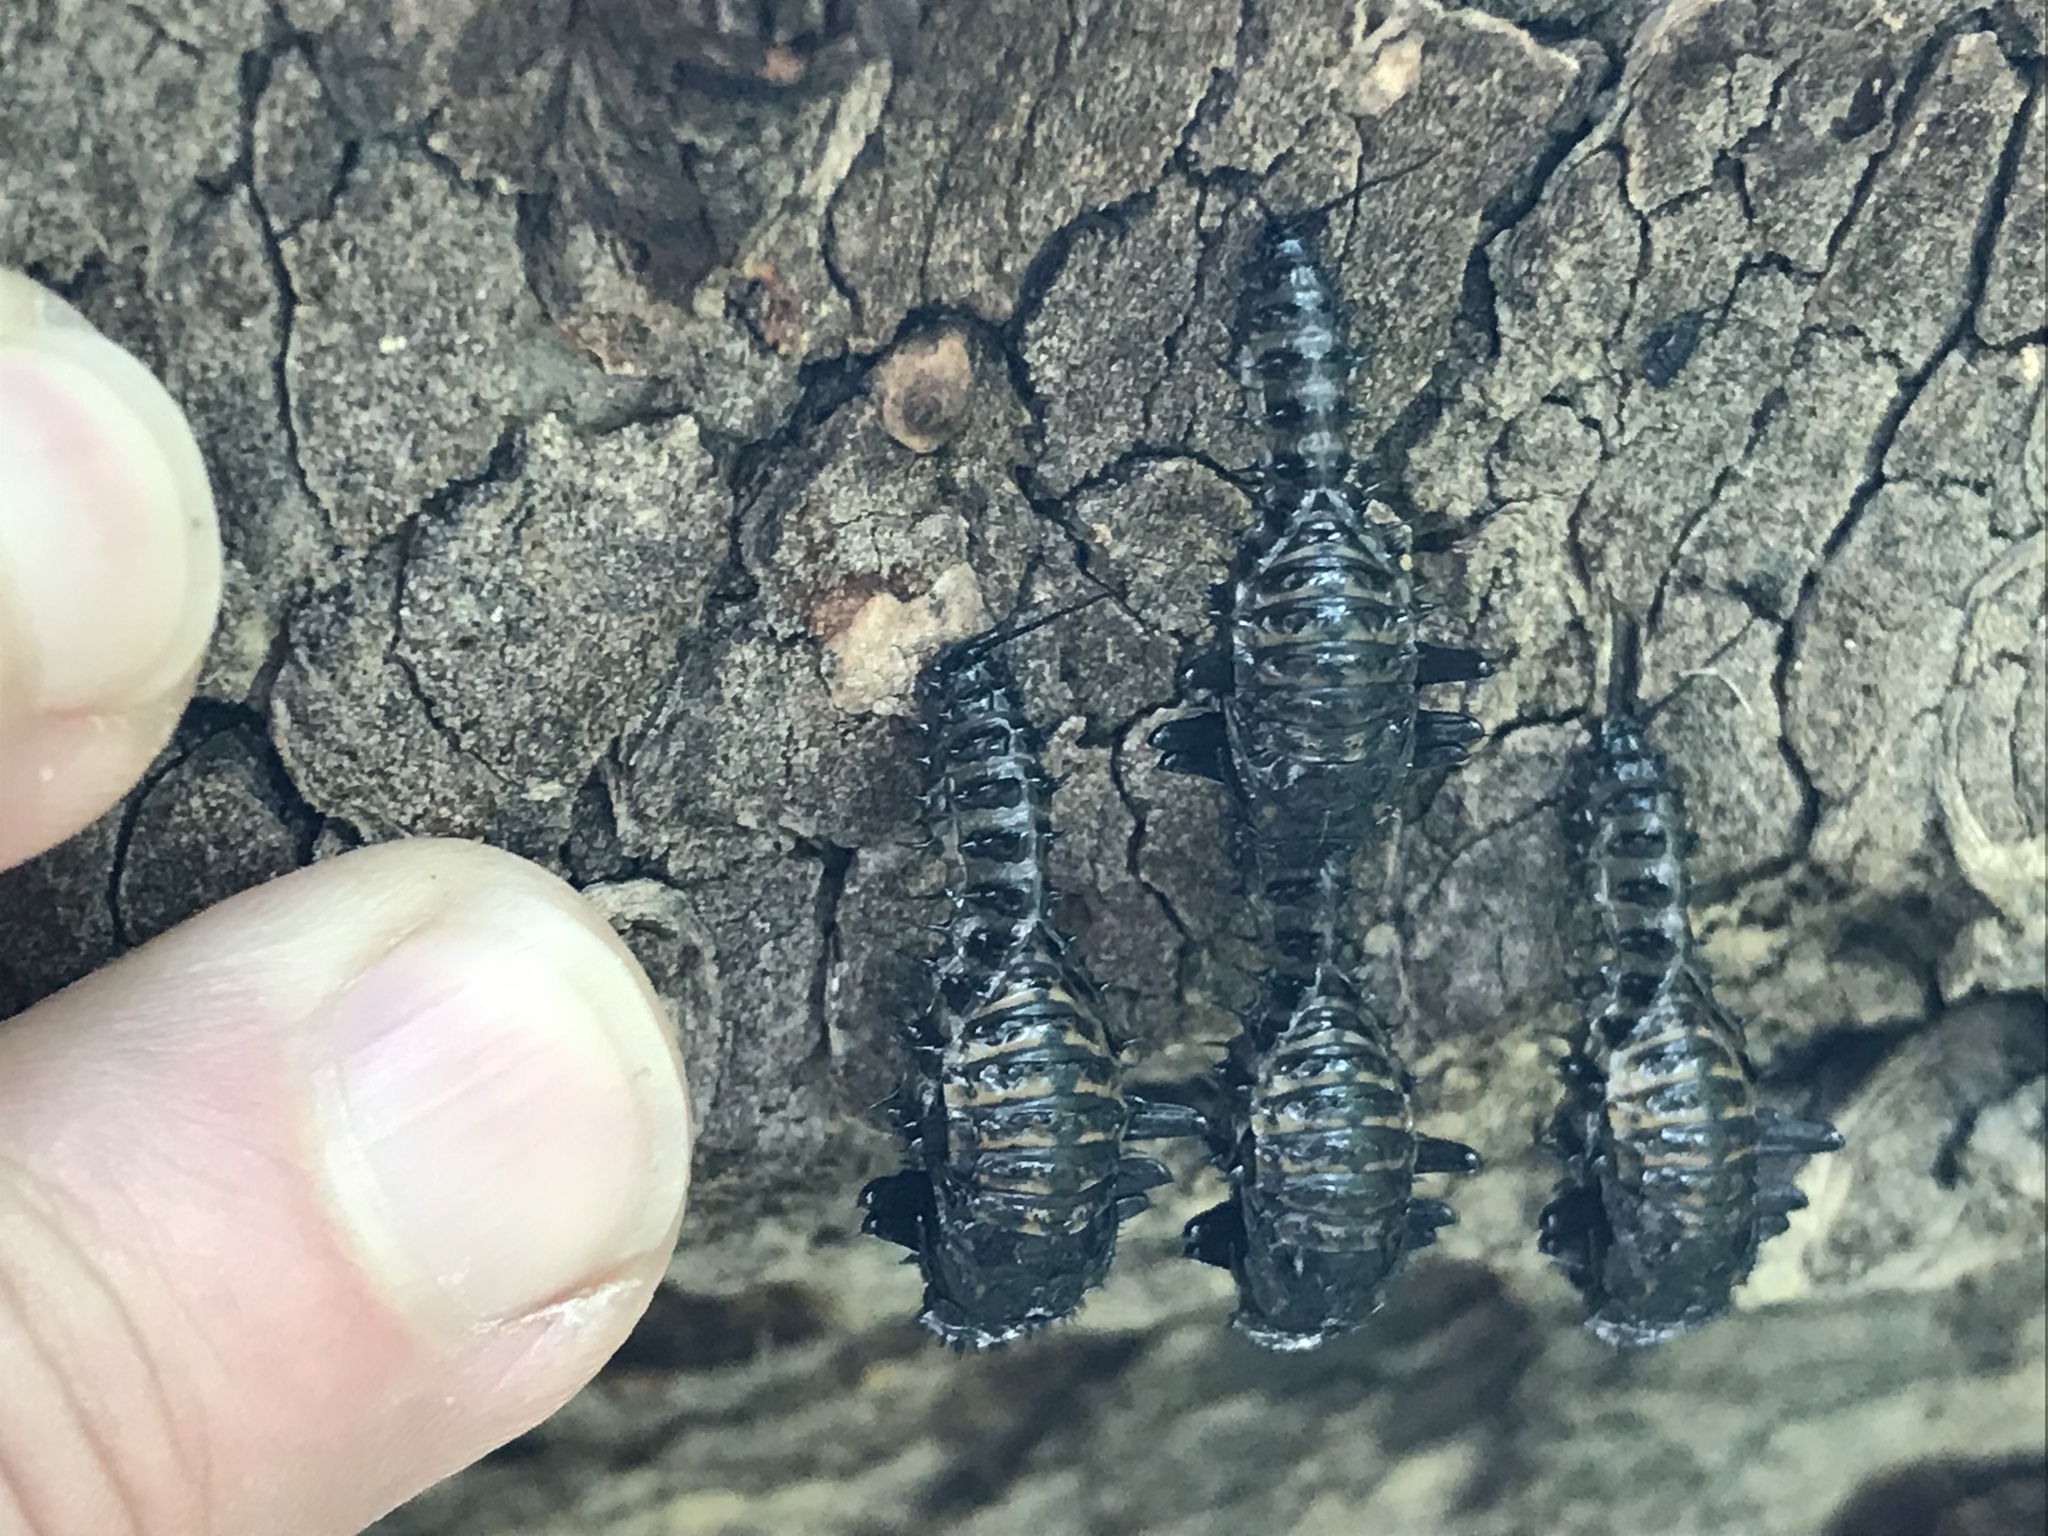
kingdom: Animalia
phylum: Arthropoda
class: Insecta
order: Coleoptera
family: Erotylidae
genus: Gibbifer
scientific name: Gibbifer californicus
